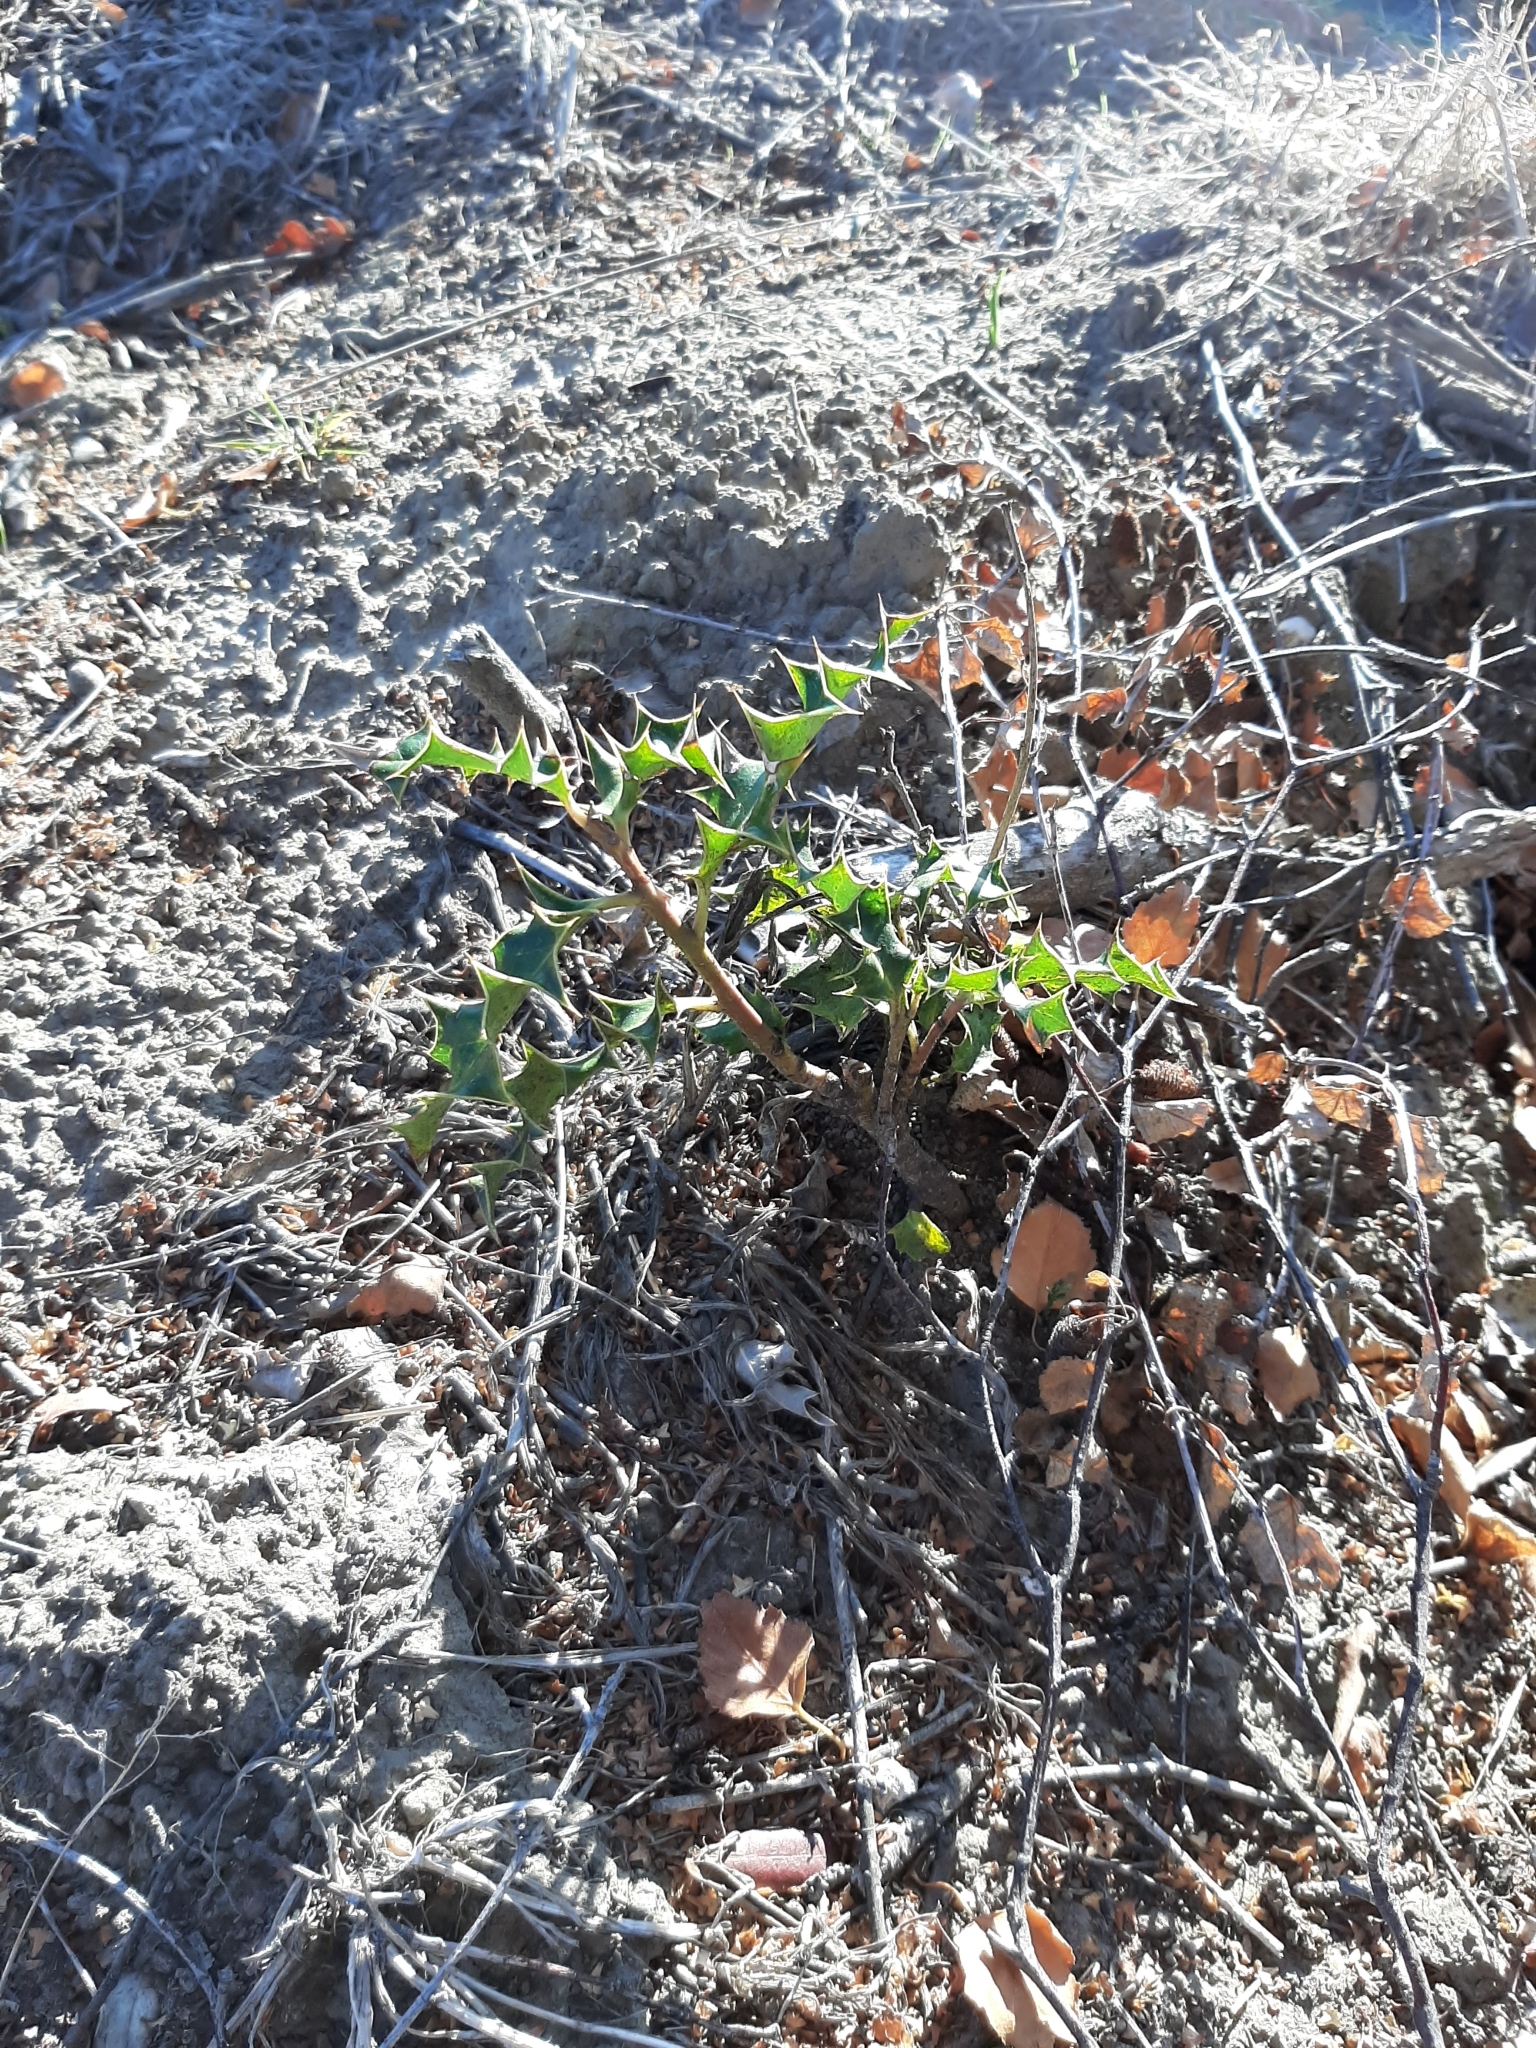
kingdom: Plantae
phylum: Tracheophyta
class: Magnoliopsida
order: Aquifoliales
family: Aquifoliaceae
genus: Ilex
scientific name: Ilex aquifolium
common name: English holly
